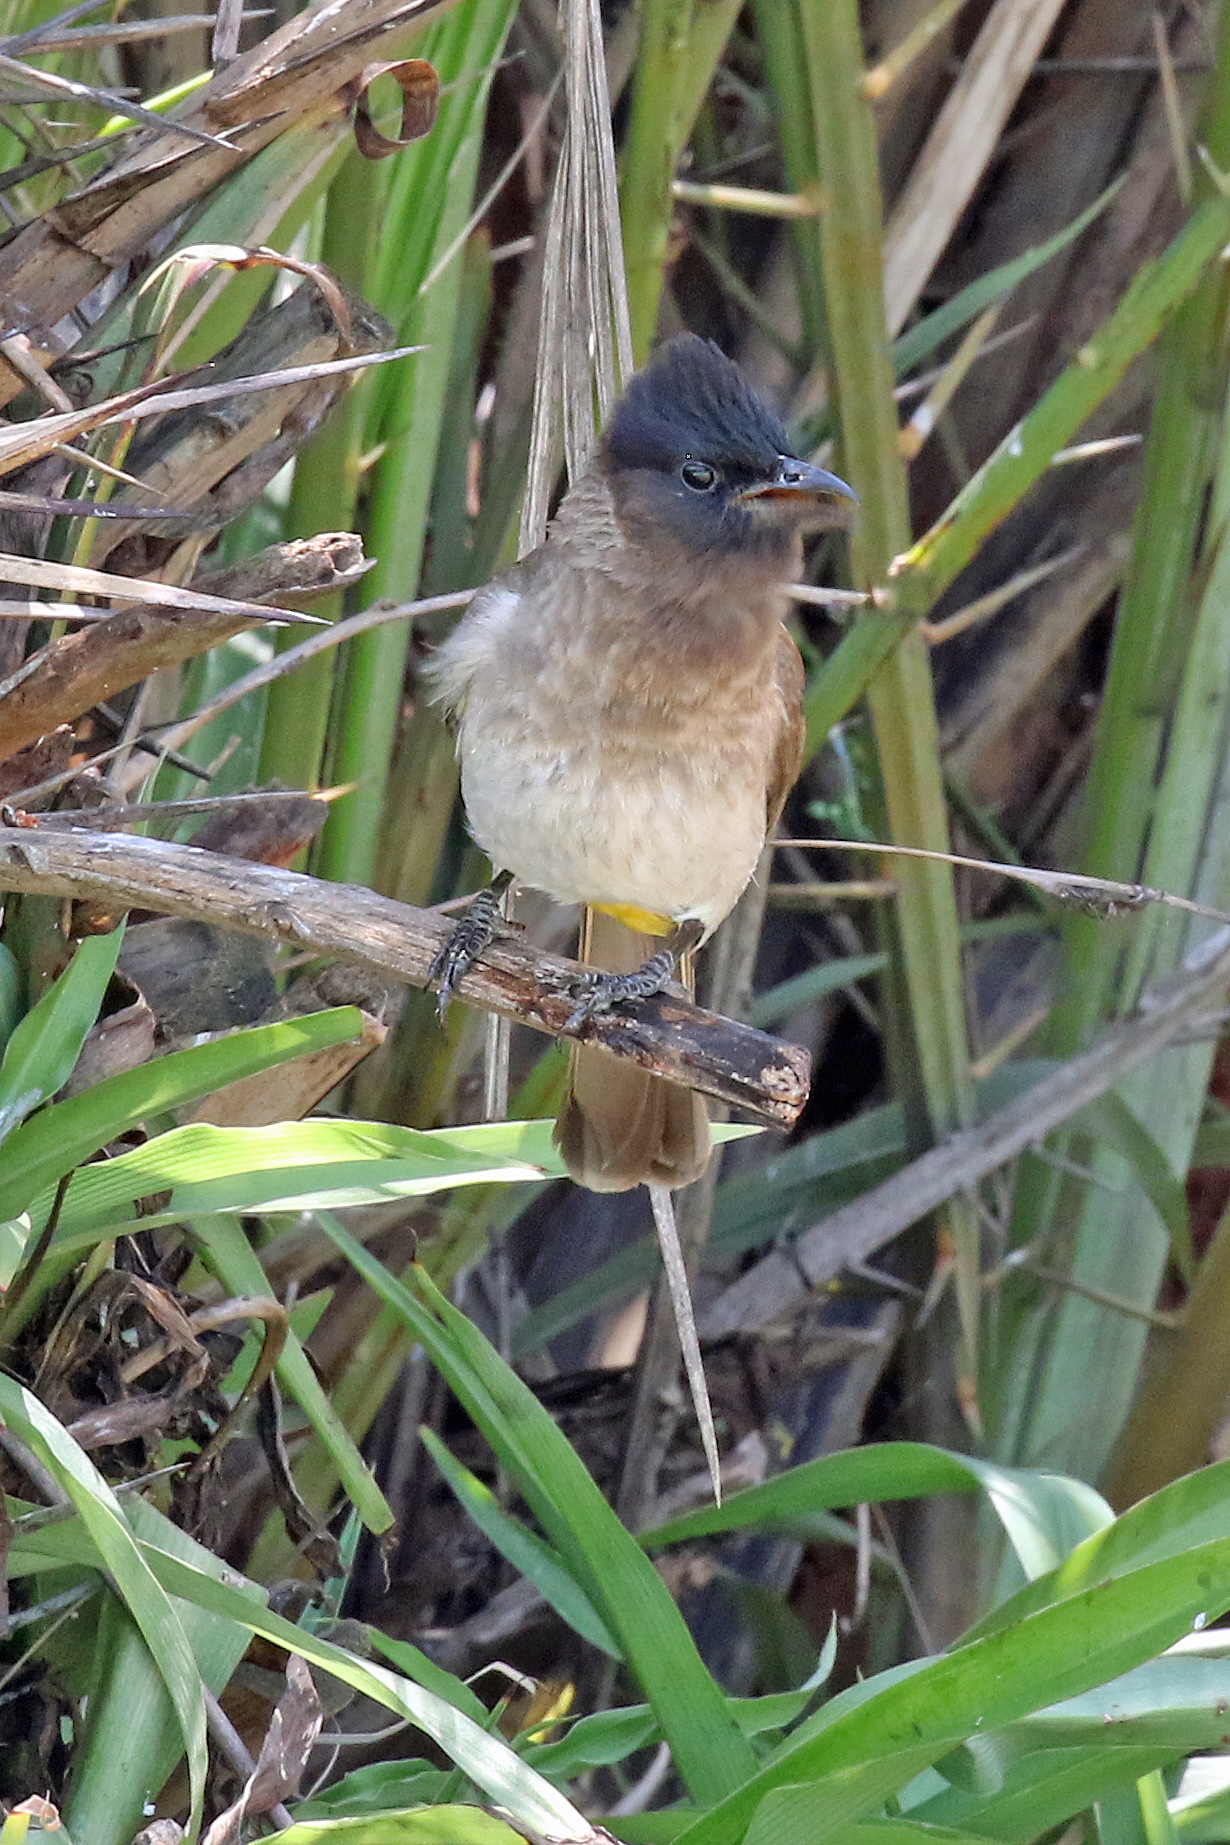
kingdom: Animalia
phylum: Chordata
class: Aves
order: Passeriformes
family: Pycnonotidae
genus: Pycnonotus
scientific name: Pycnonotus barbatus
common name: Common bulbul
